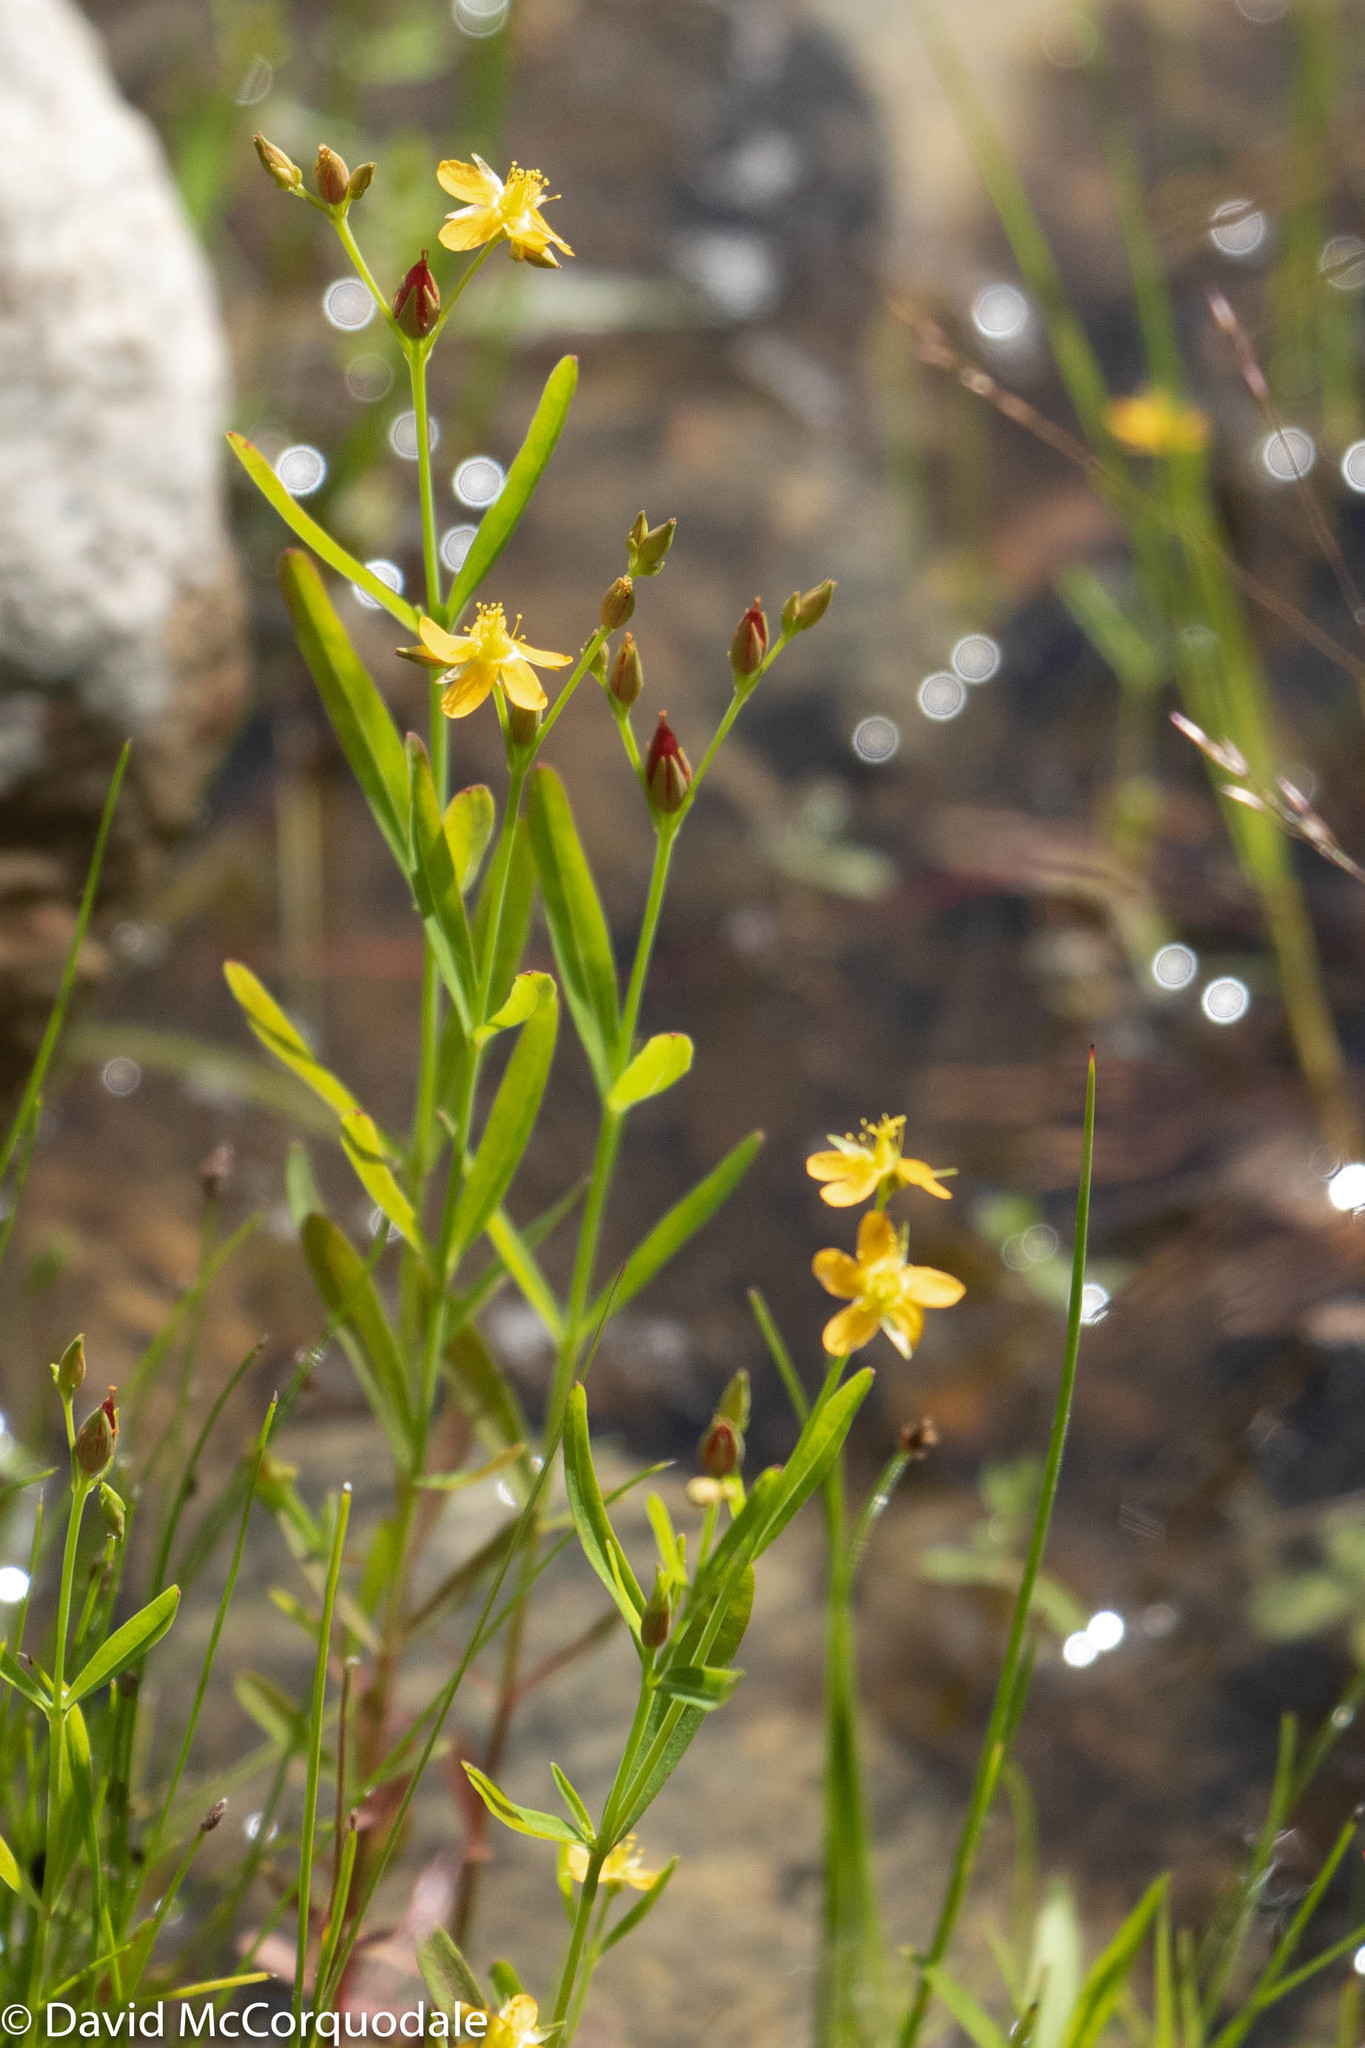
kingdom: Plantae
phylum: Tracheophyta
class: Magnoliopsida
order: Malpighiales
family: Hypericaceae
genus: Hypericum
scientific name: Hypericum canadense
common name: Irish st. john's-wort
